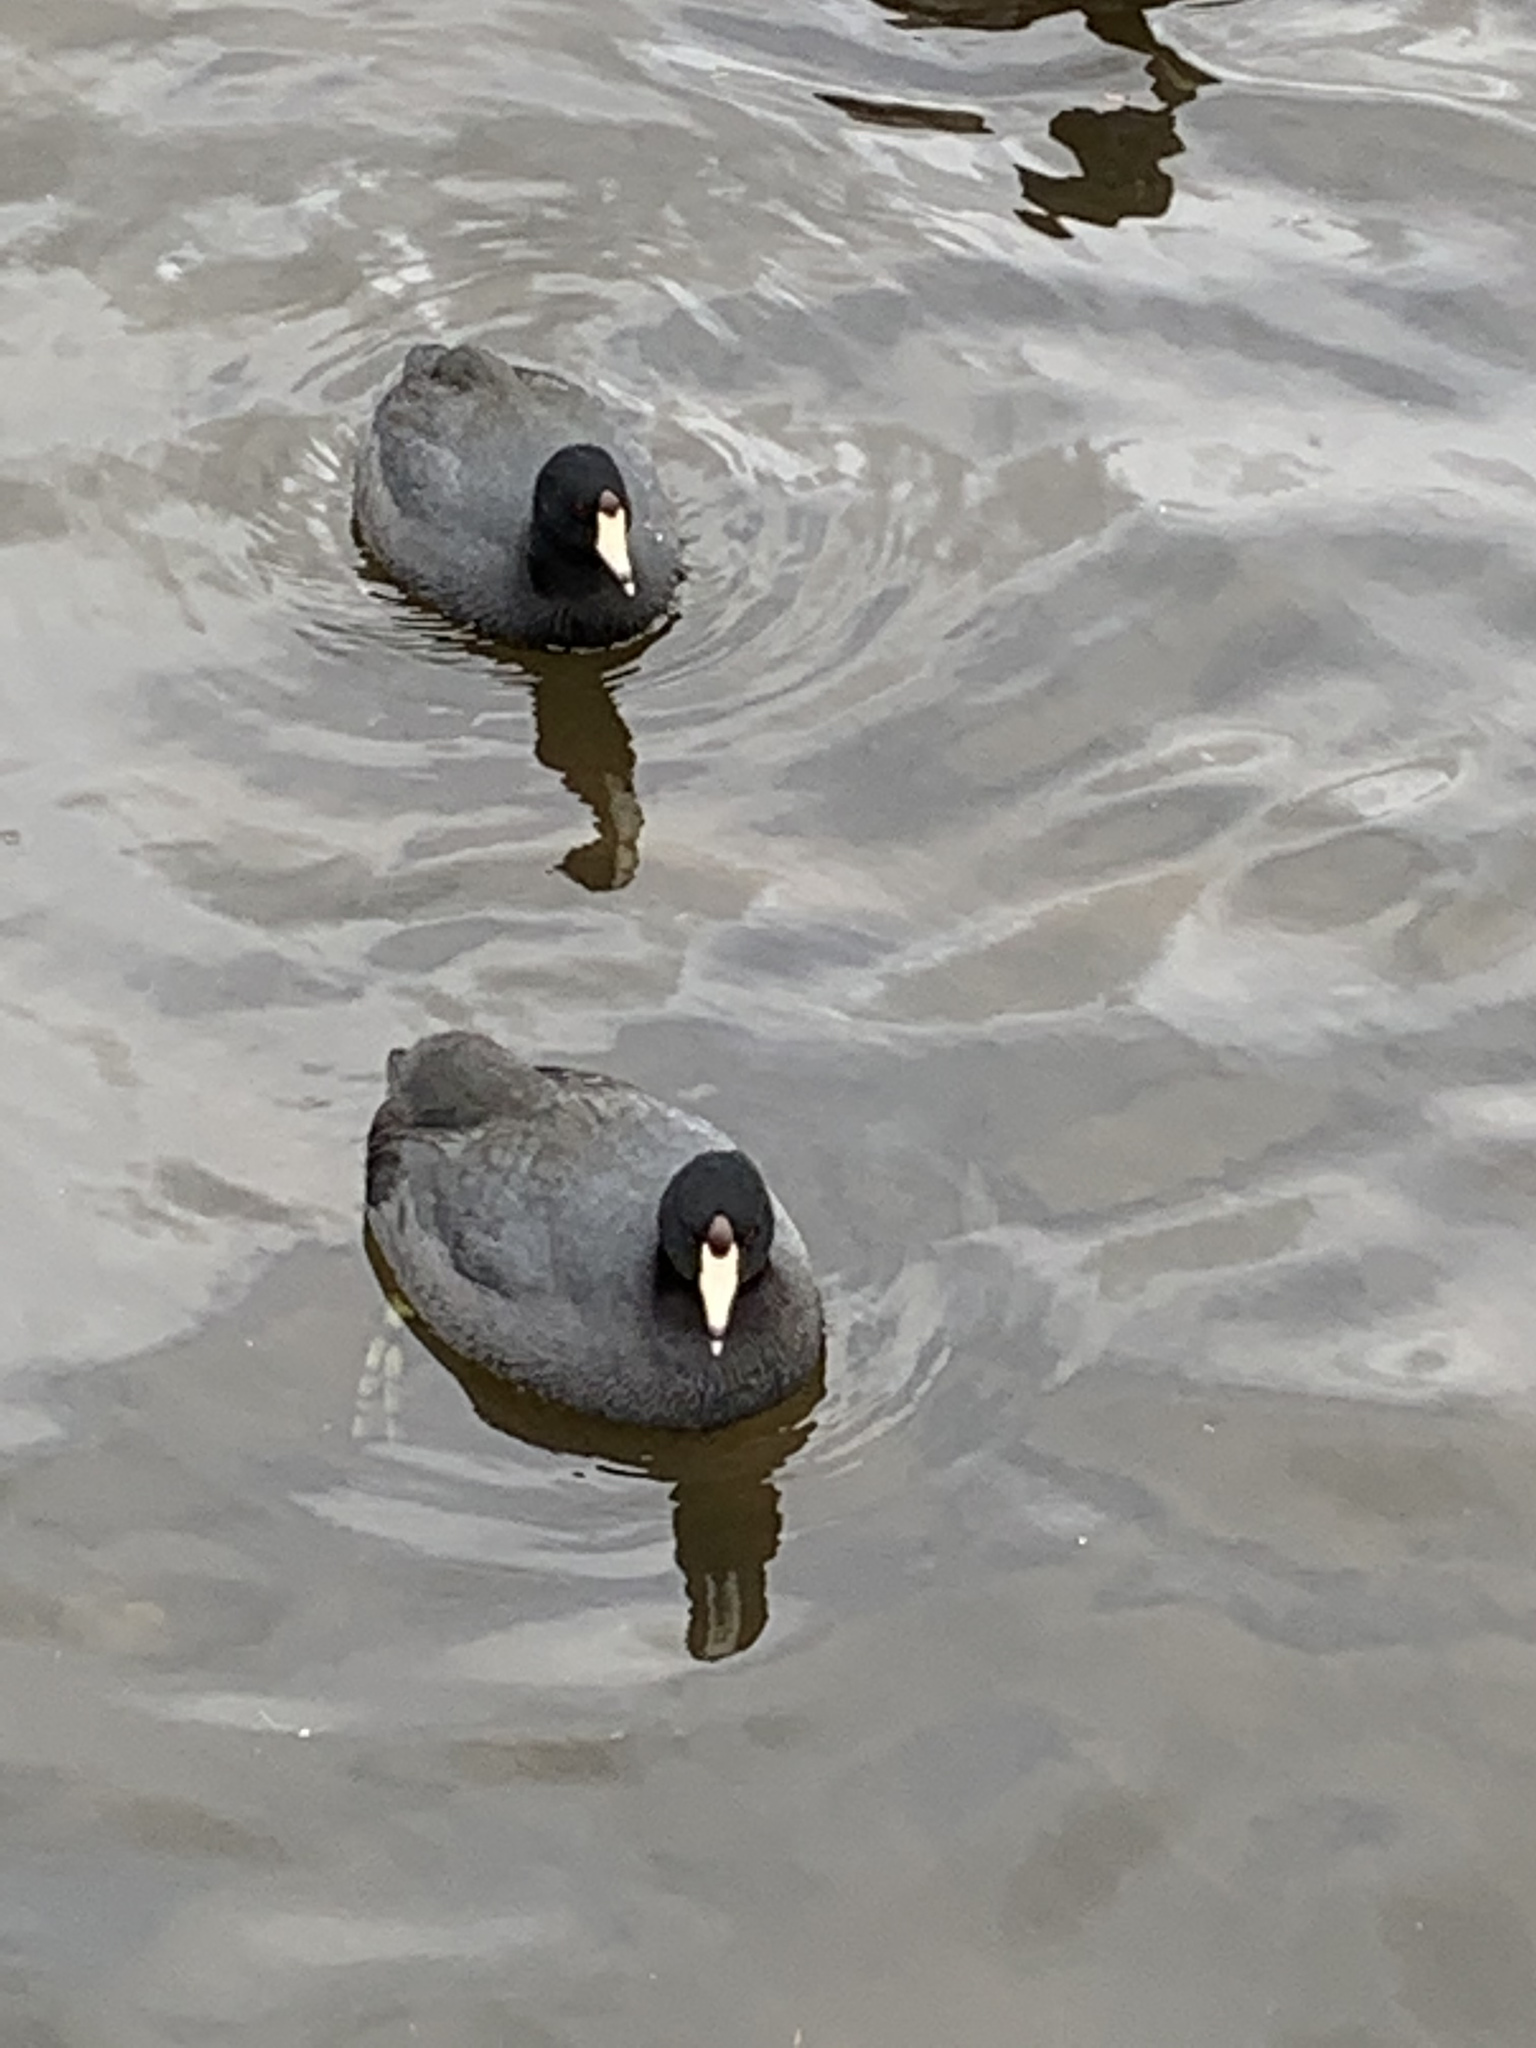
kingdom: Animalia
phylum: Chordata
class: Aves
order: Gruiformes
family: Rallidae
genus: Fulica
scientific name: Fulica americana
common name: American coot
